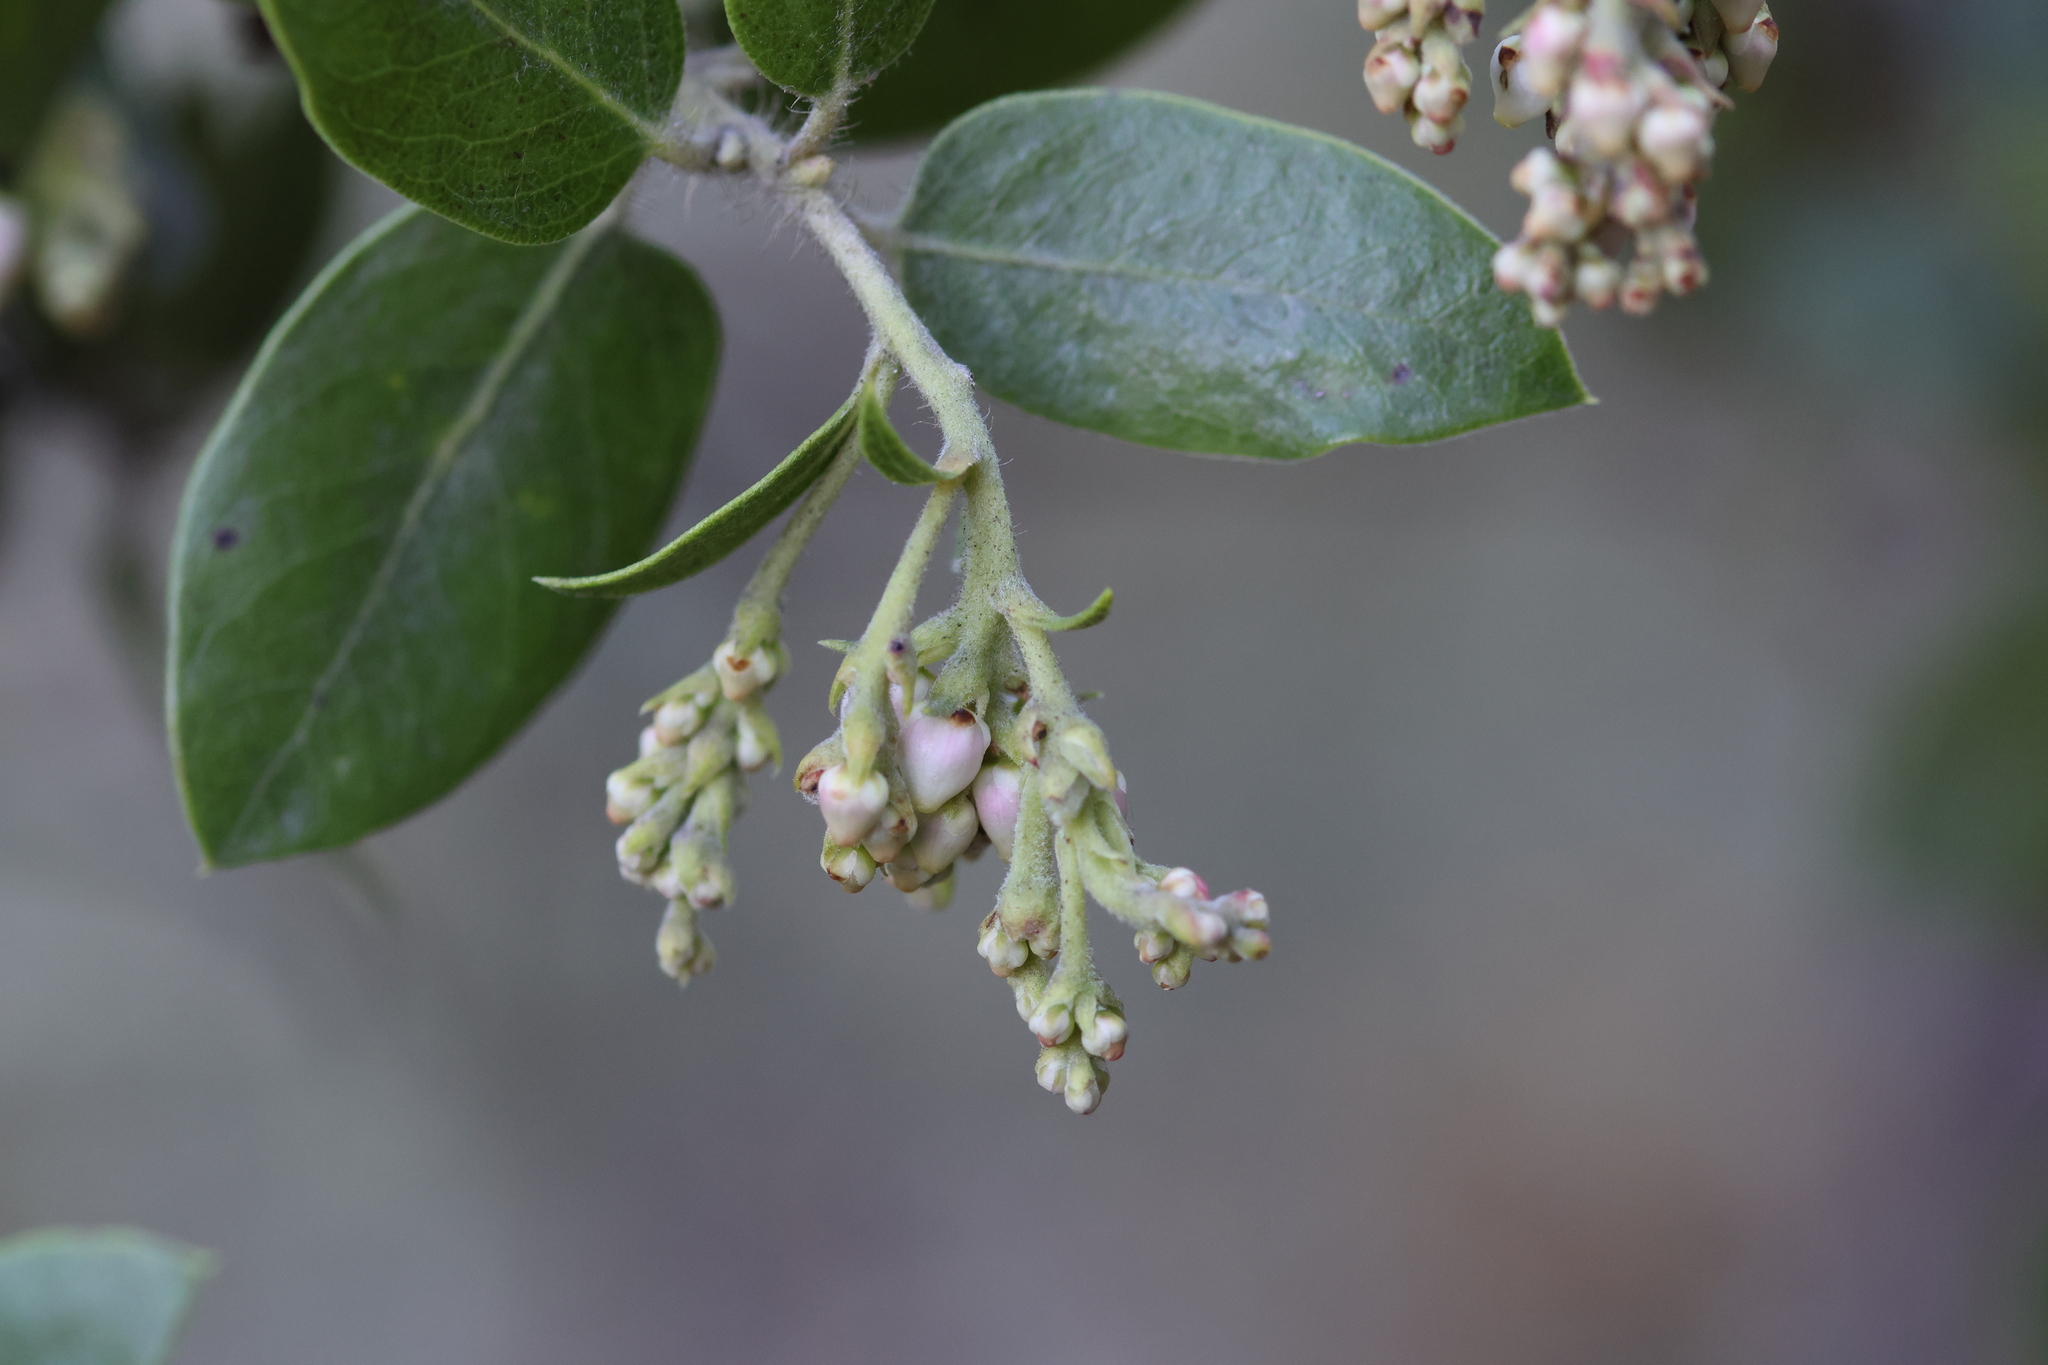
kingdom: Plantae
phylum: Tracheophyta
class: Magnoliopsida
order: Ericales
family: Ericaceae
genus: Arctostaphylos
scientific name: Arctostaphylos crustacea
